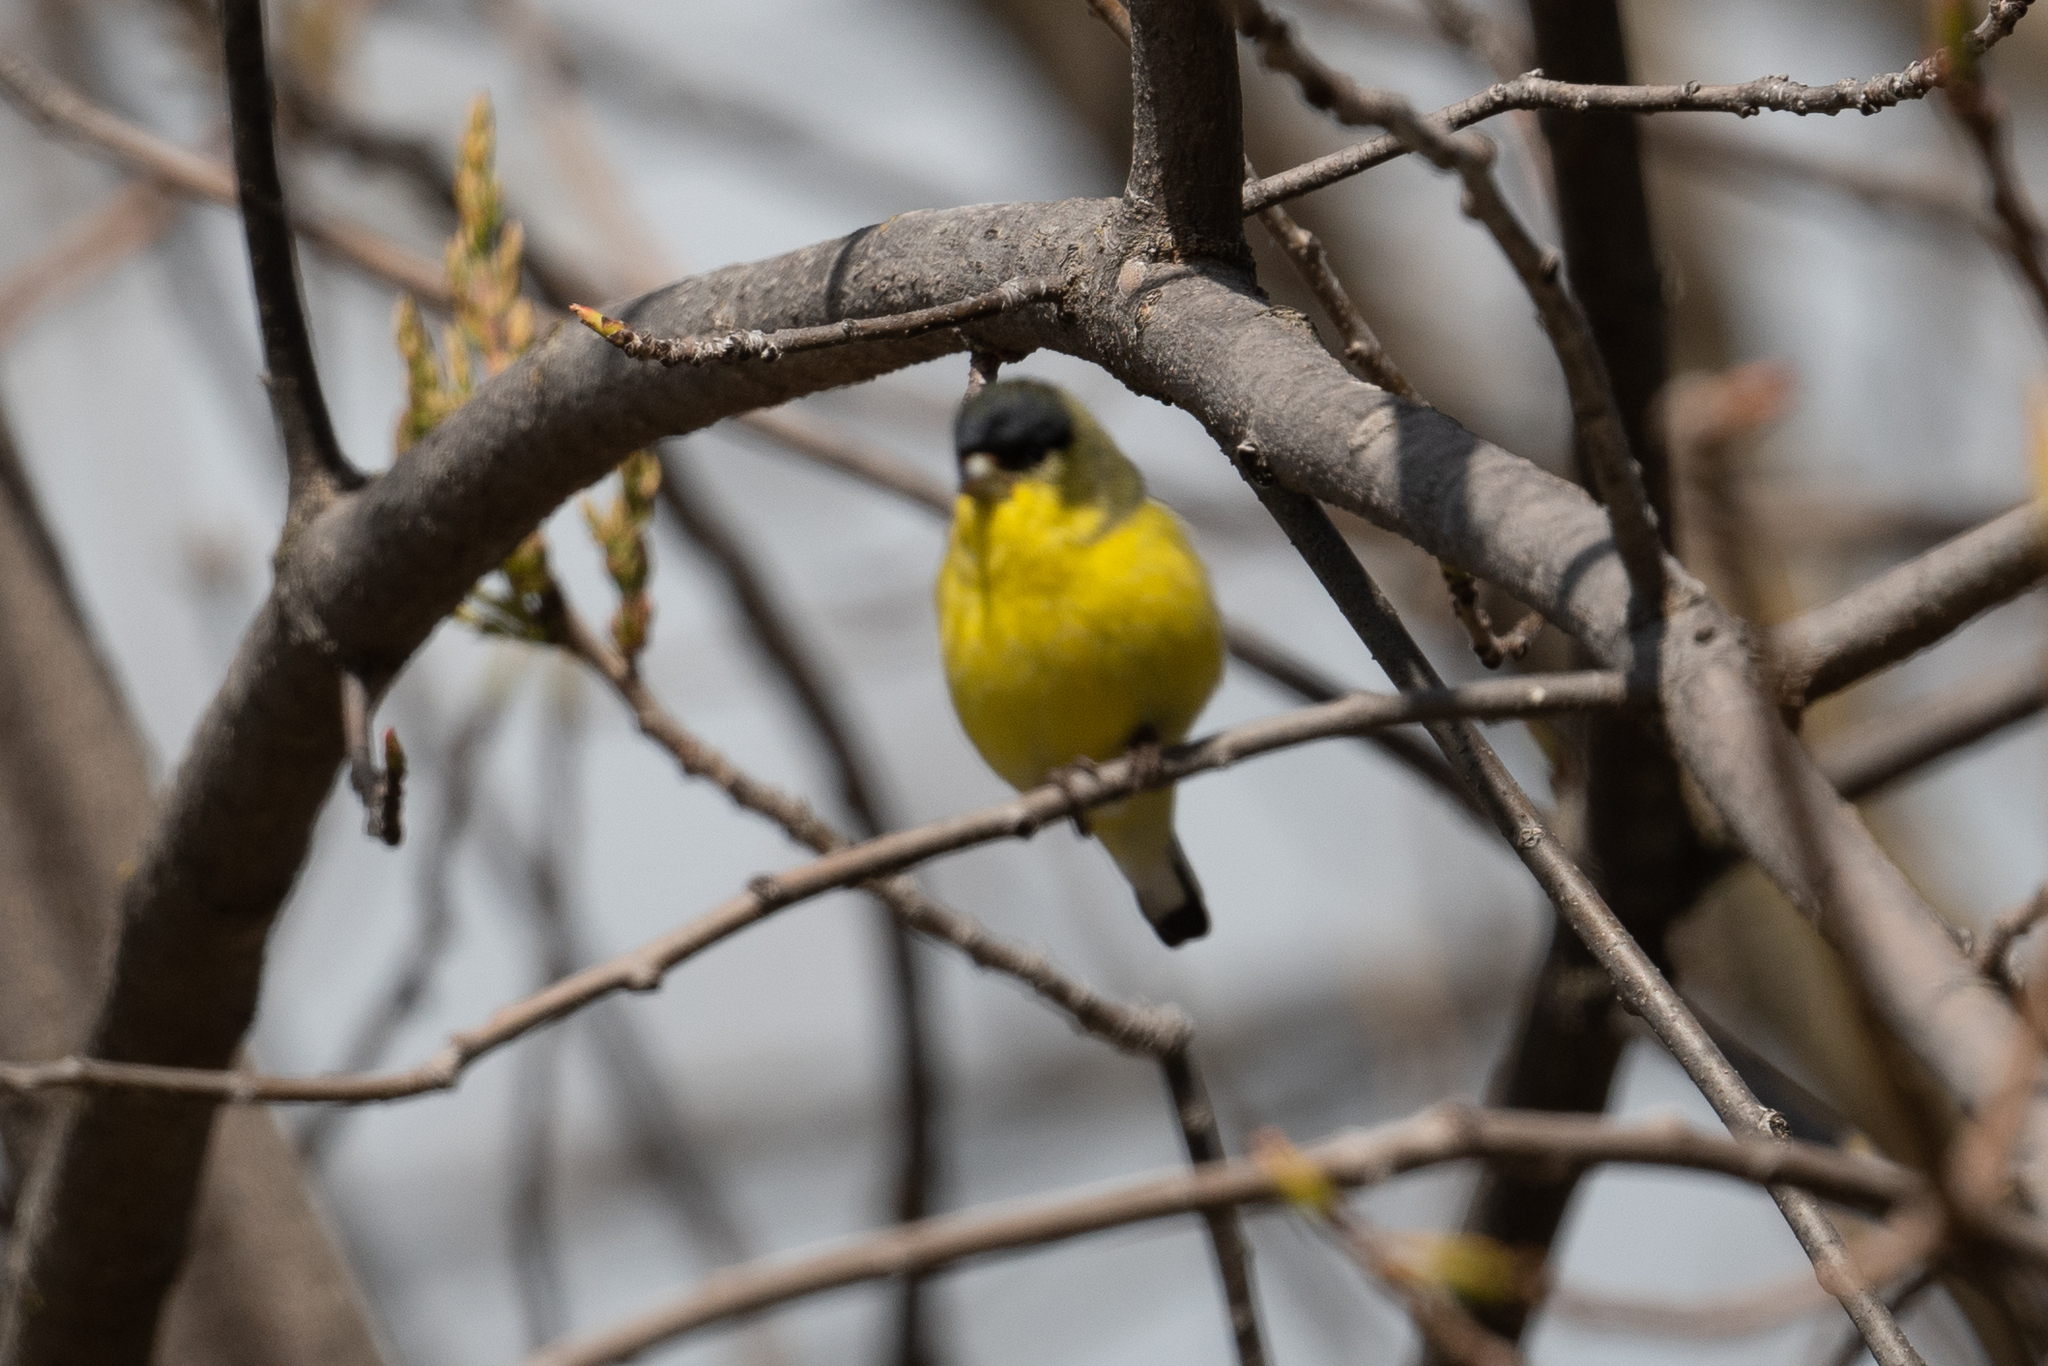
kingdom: Animalia
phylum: Chordata
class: Aves
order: Passeriformes
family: Fringillidae
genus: Spinus
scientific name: Spinus psaltria
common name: Lesser goldfinch
